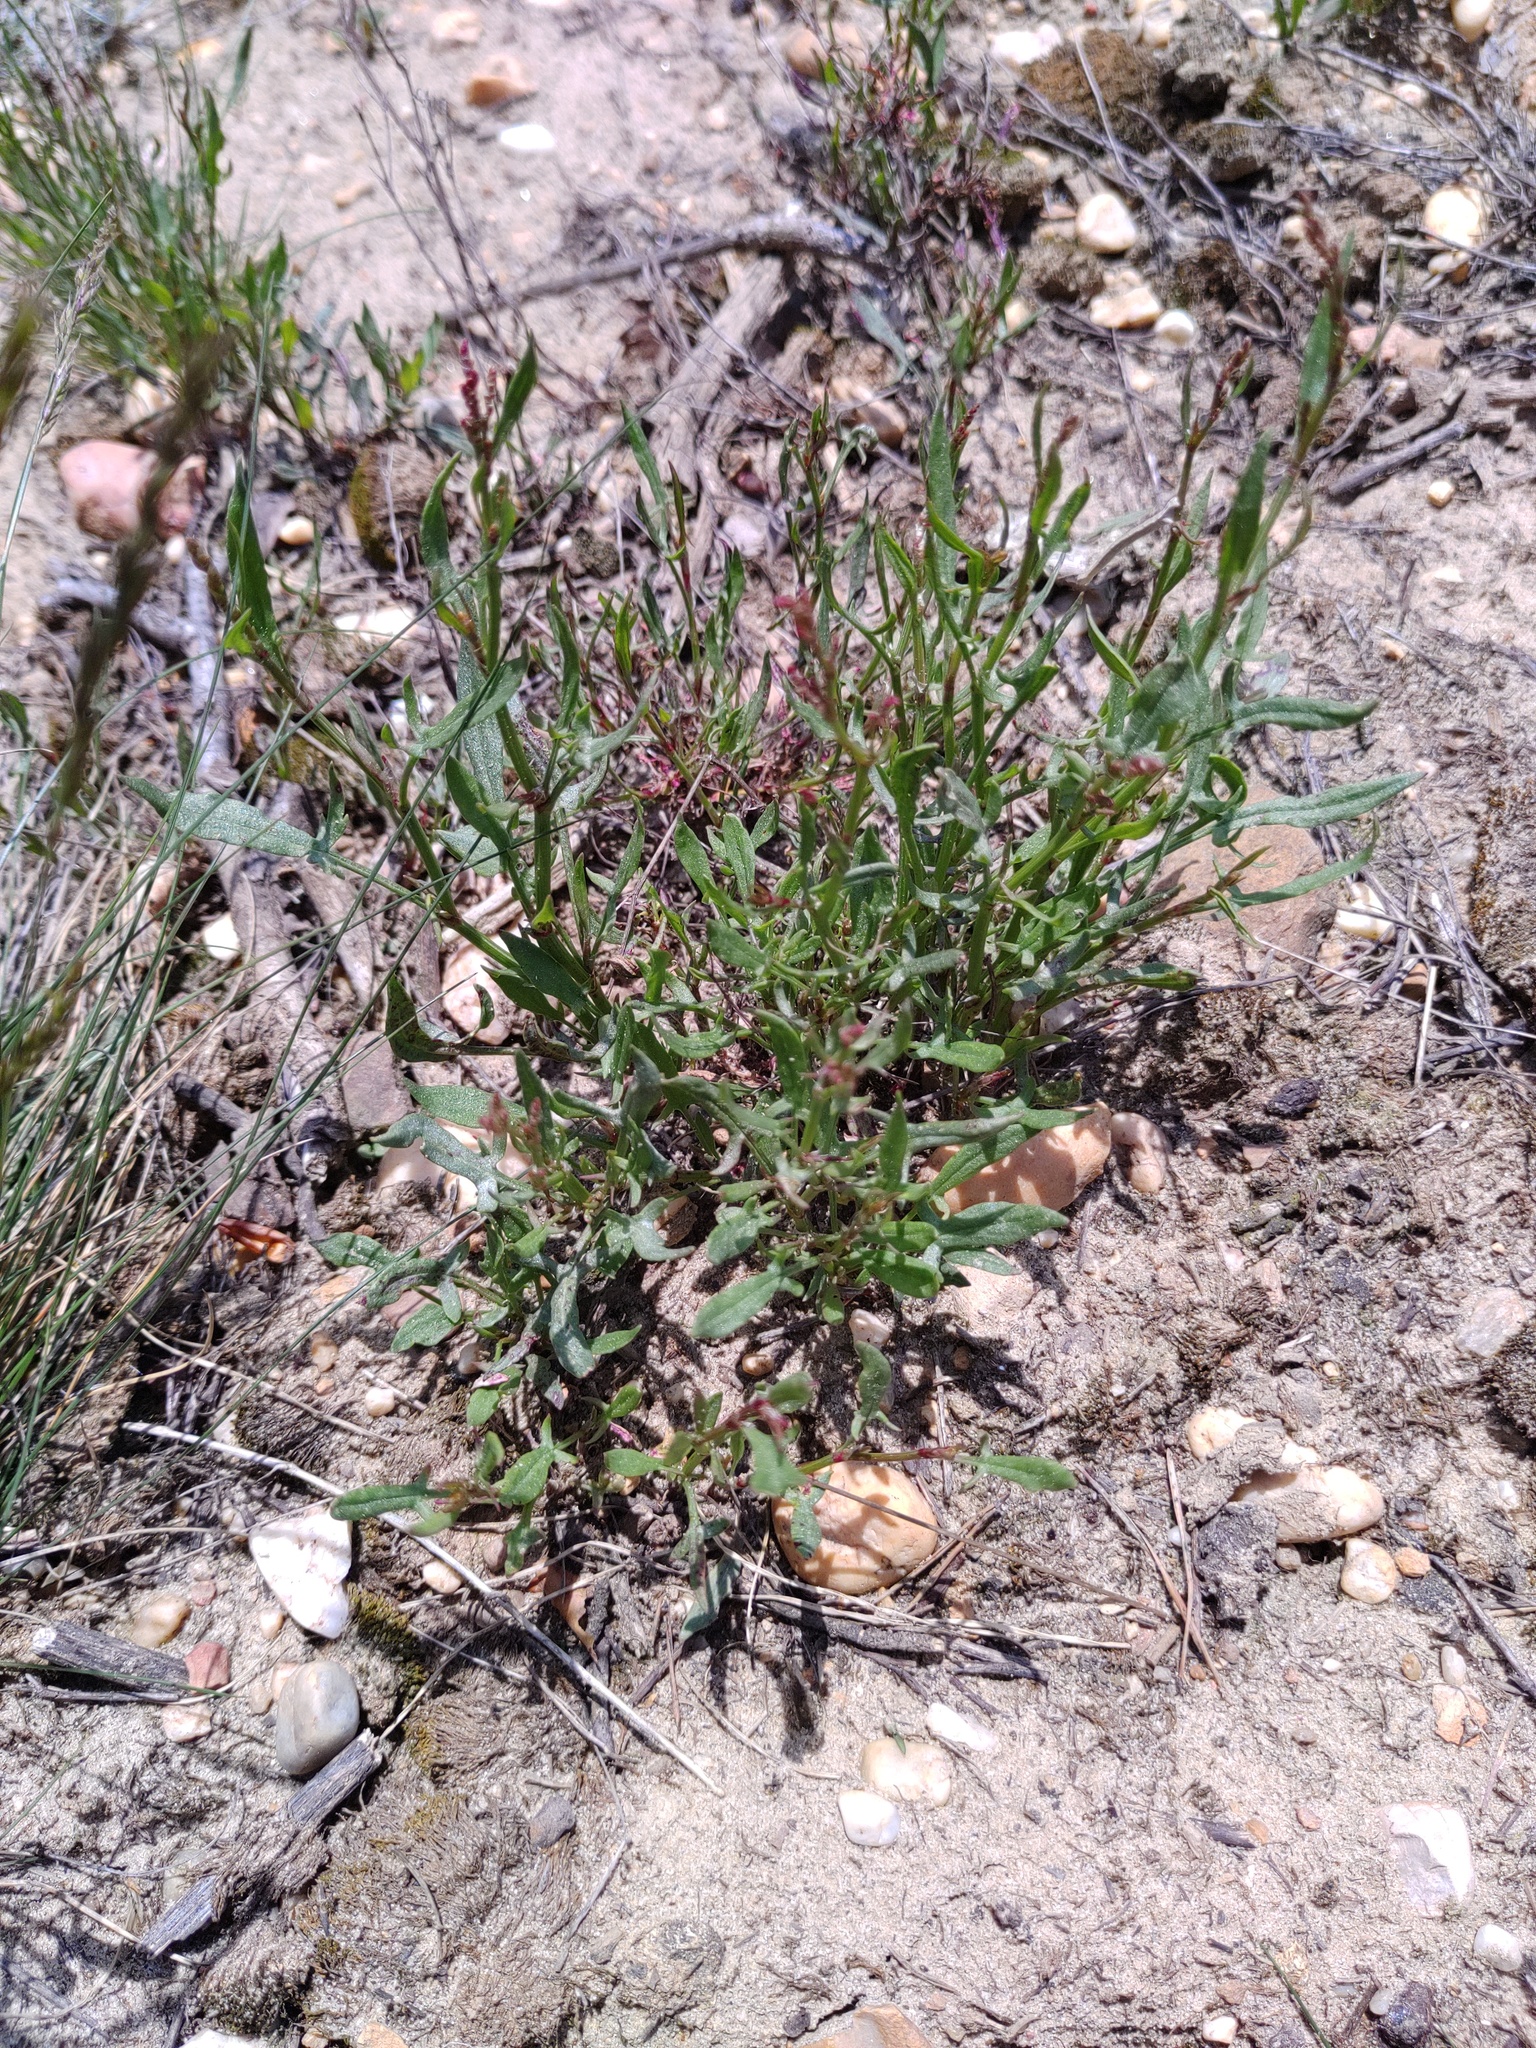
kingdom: Plantae
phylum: Tracheophyta
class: Magnoliopsida
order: Caryophyllales
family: Polygonaceae
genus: Rumex
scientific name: Rumex acetosella
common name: Common sheep sorrel
